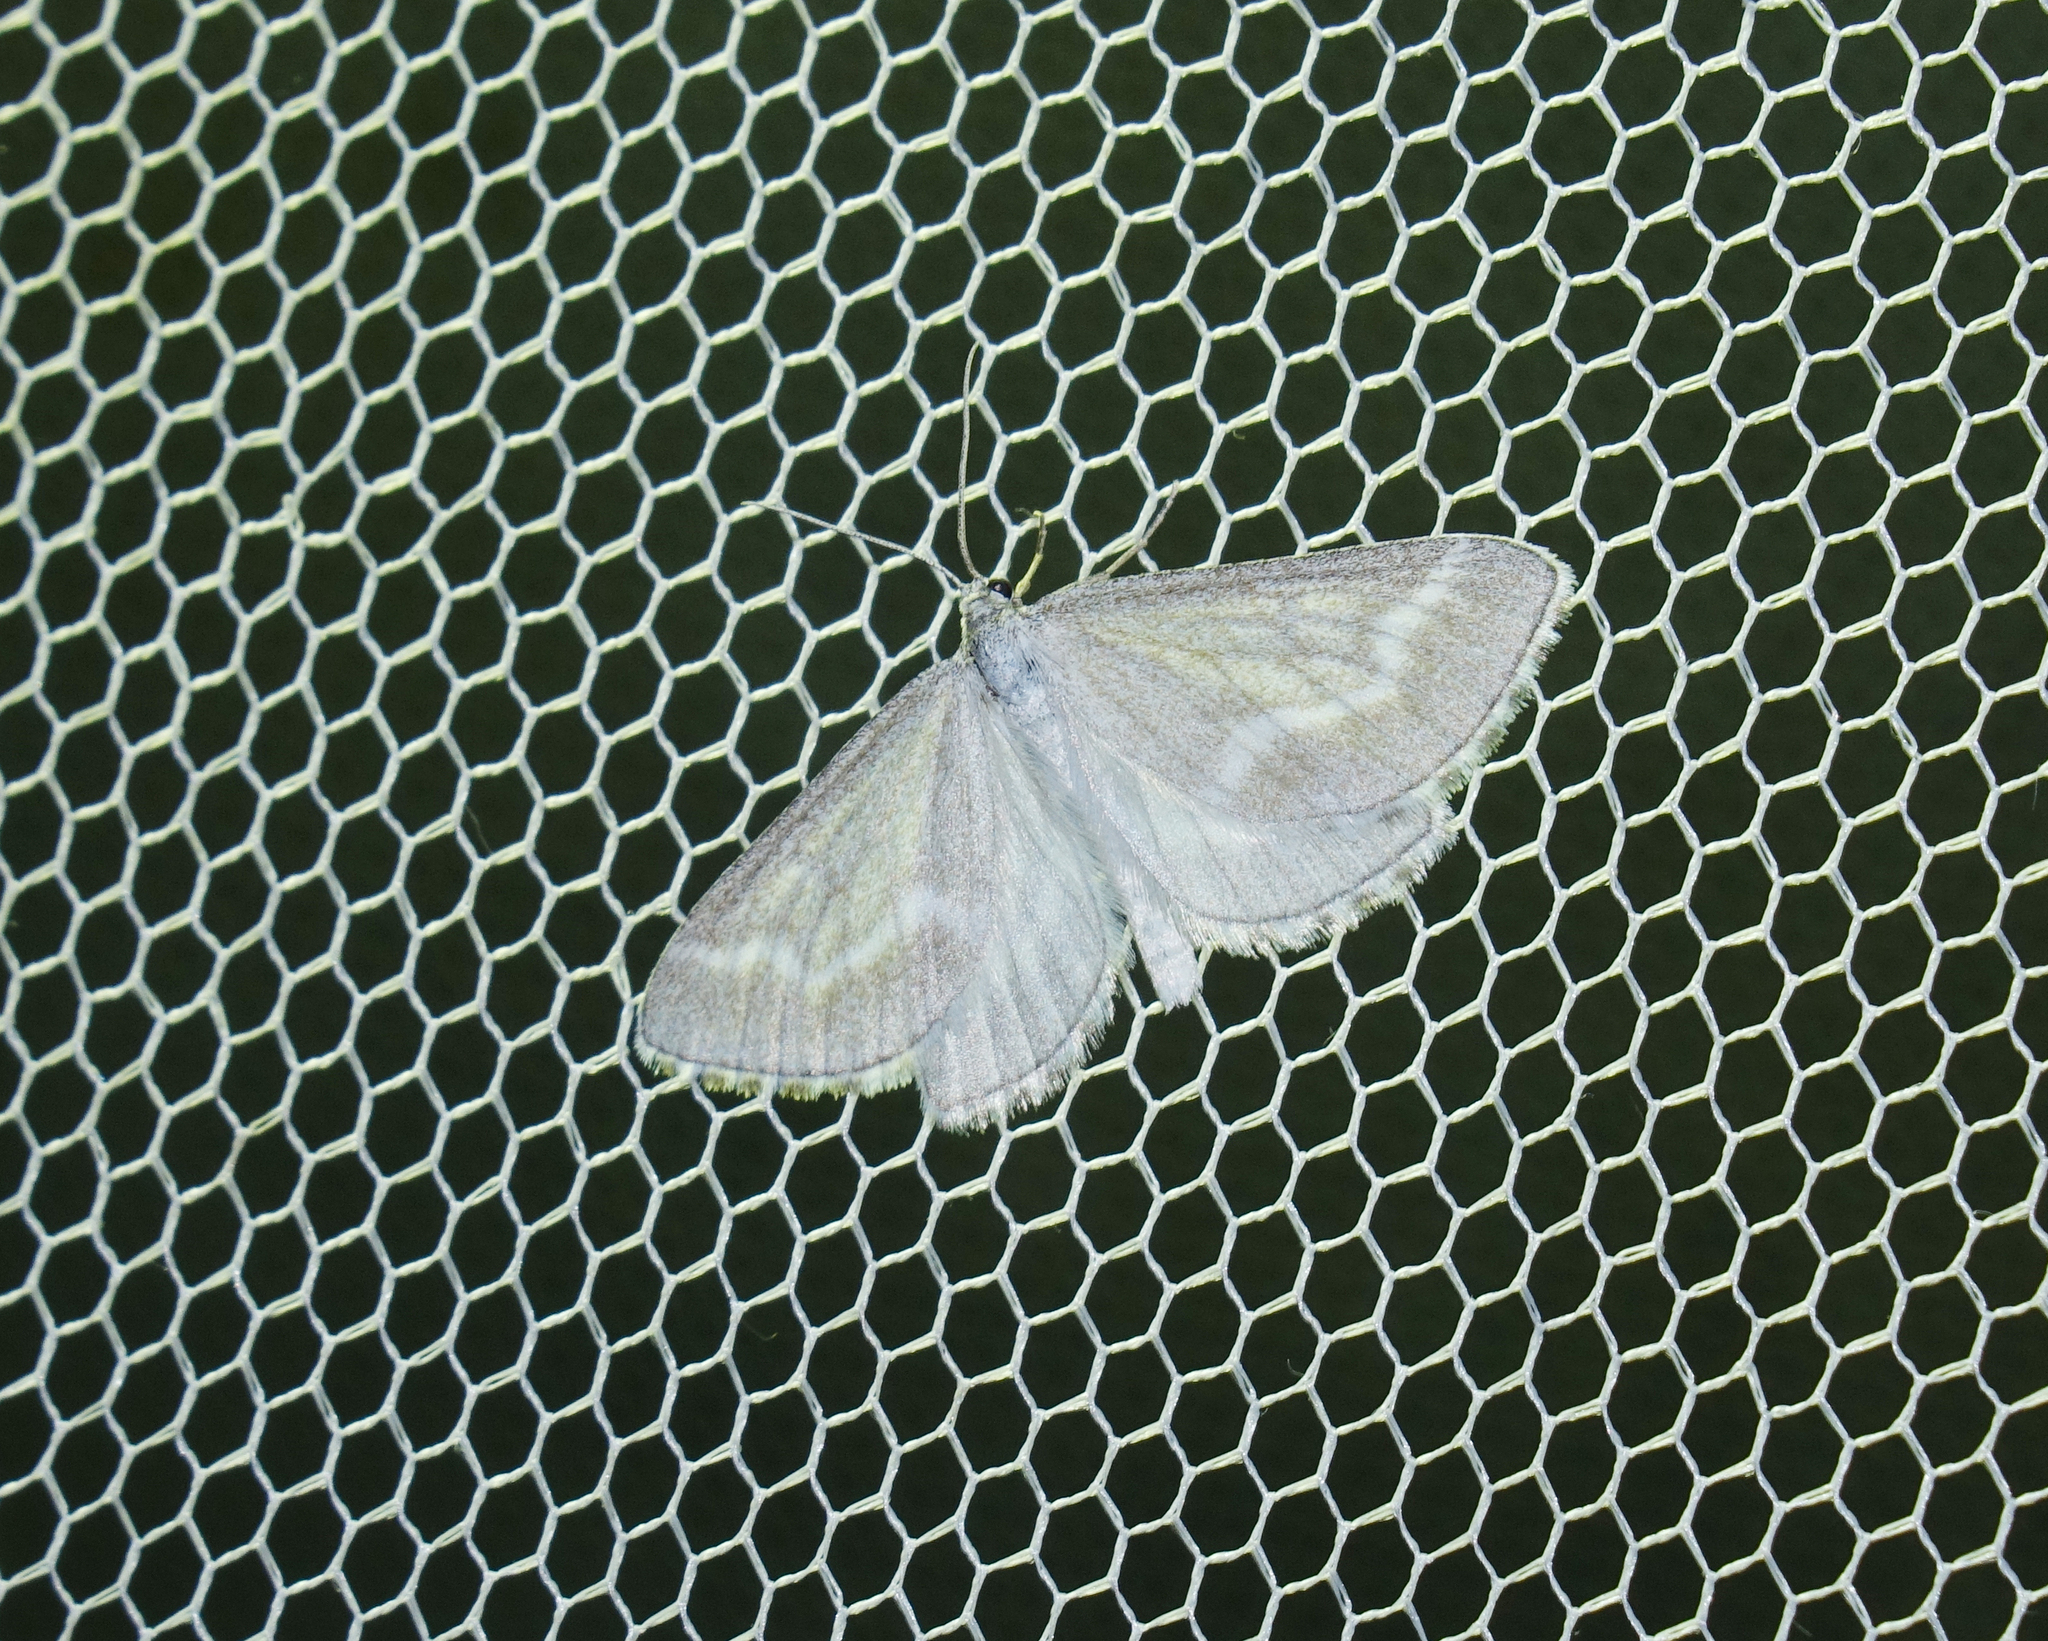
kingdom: Animalia
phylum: Arthropoda
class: Insecta
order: Lepidoptera
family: Geometridae
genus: Schistostege
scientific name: Schistostege nubilaria
